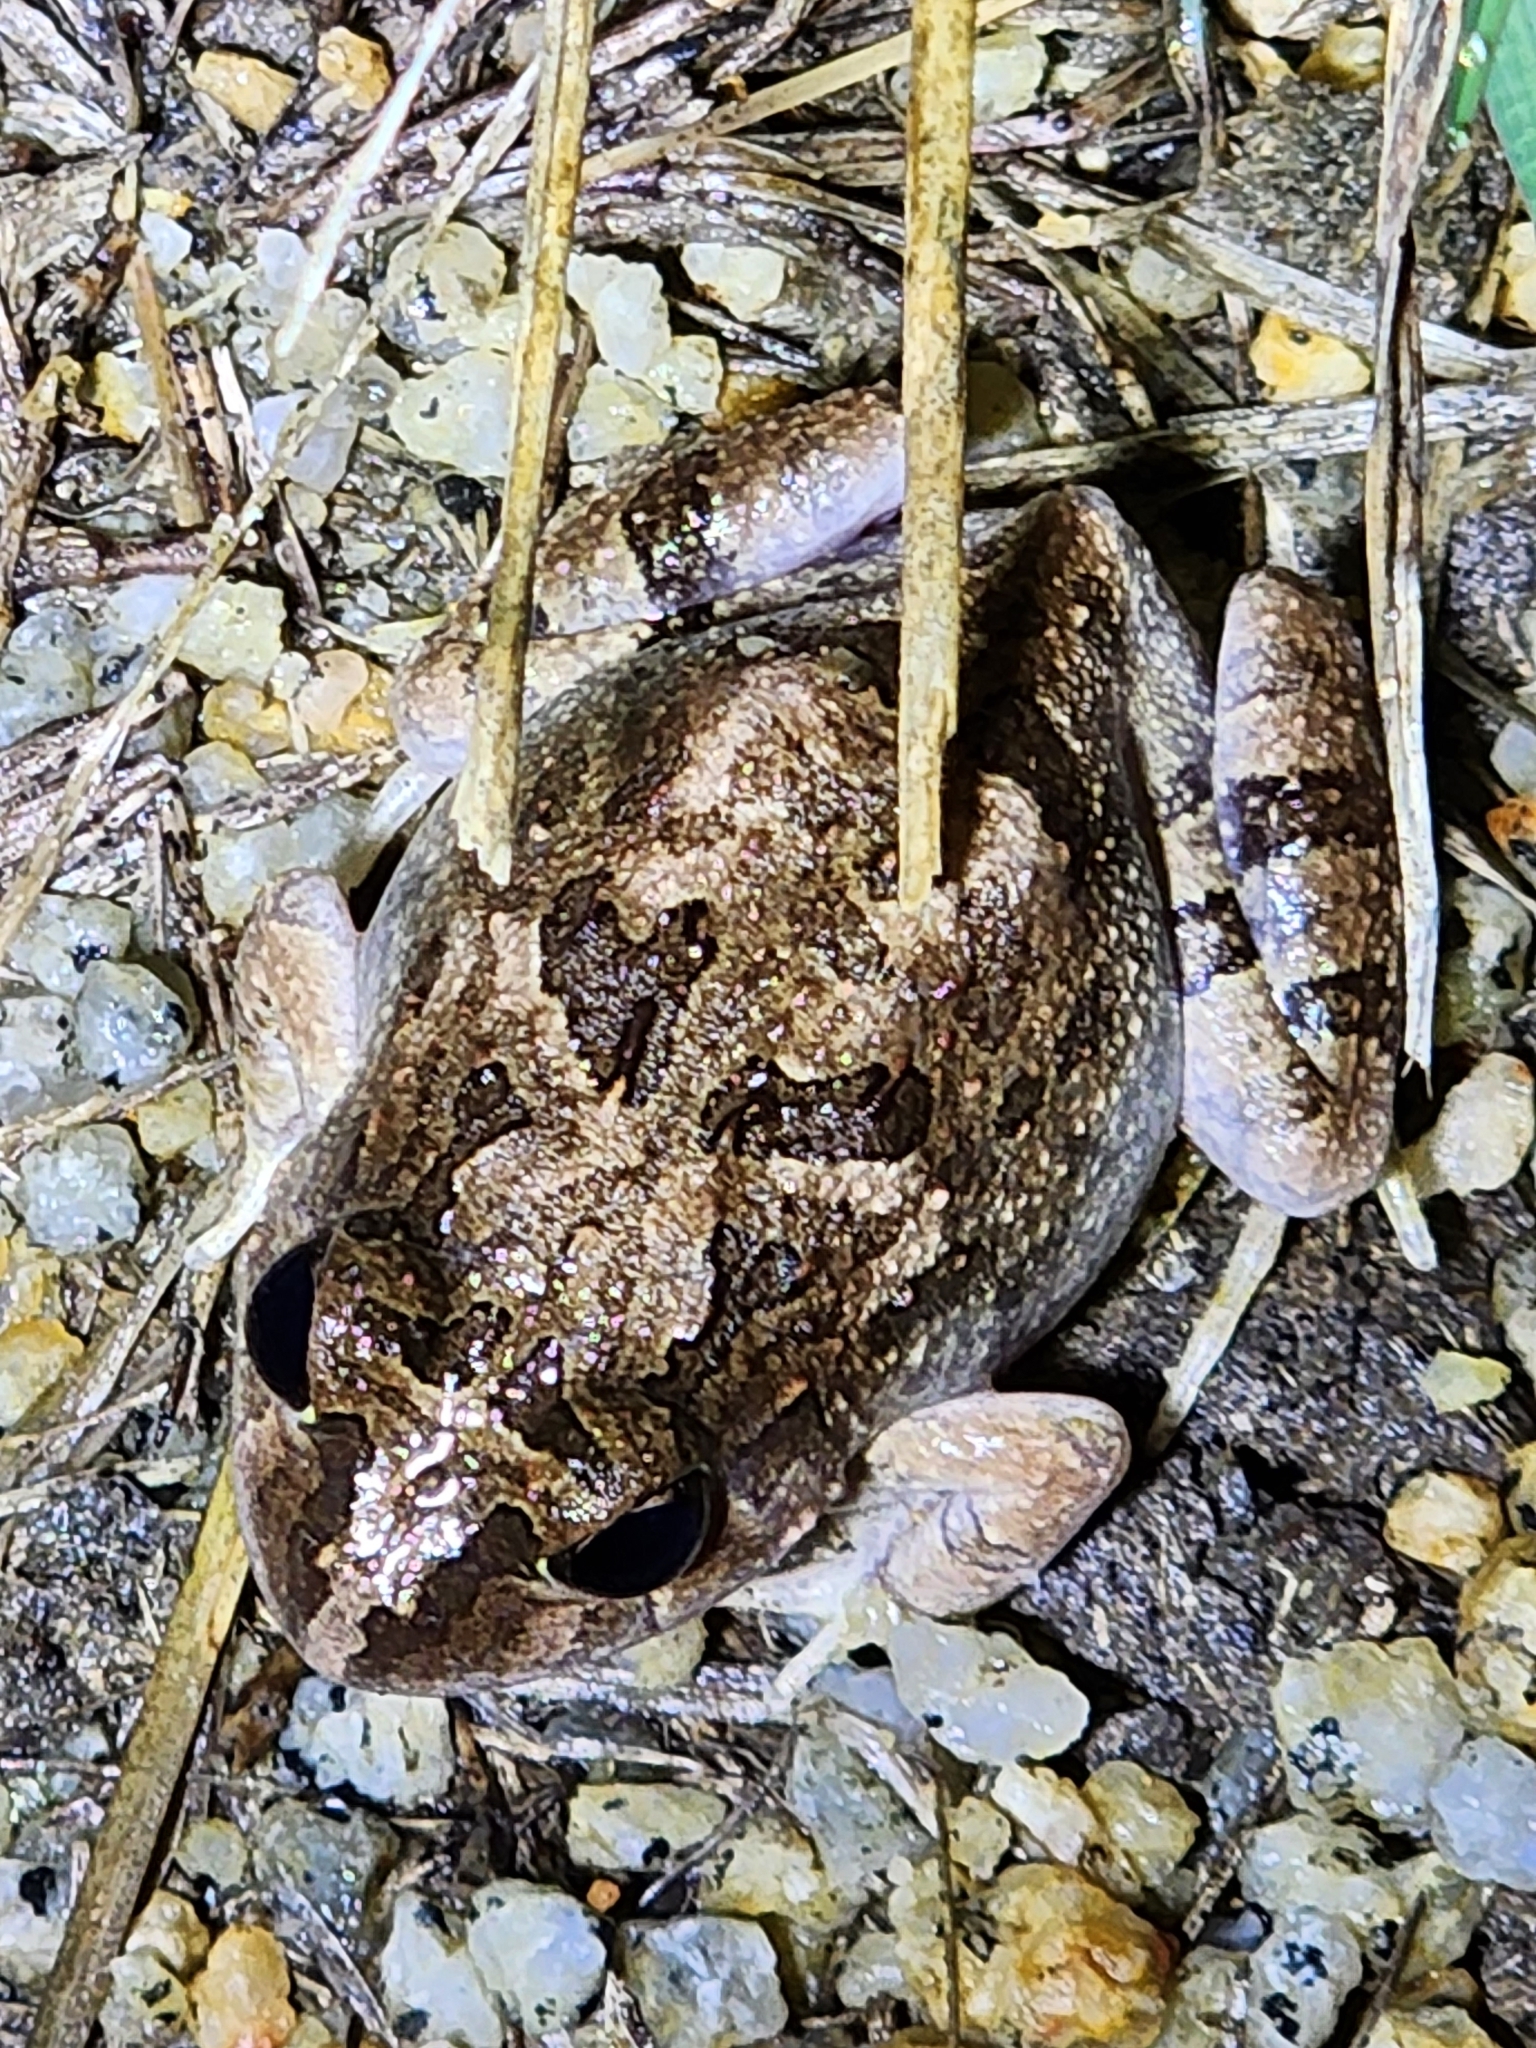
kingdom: Animalia
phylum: Chordata
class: Amphibia
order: Anura
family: Limnodynastidae
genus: Platyplectrum
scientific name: Platyplectrum ornatum
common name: Ornate burrowing frog
